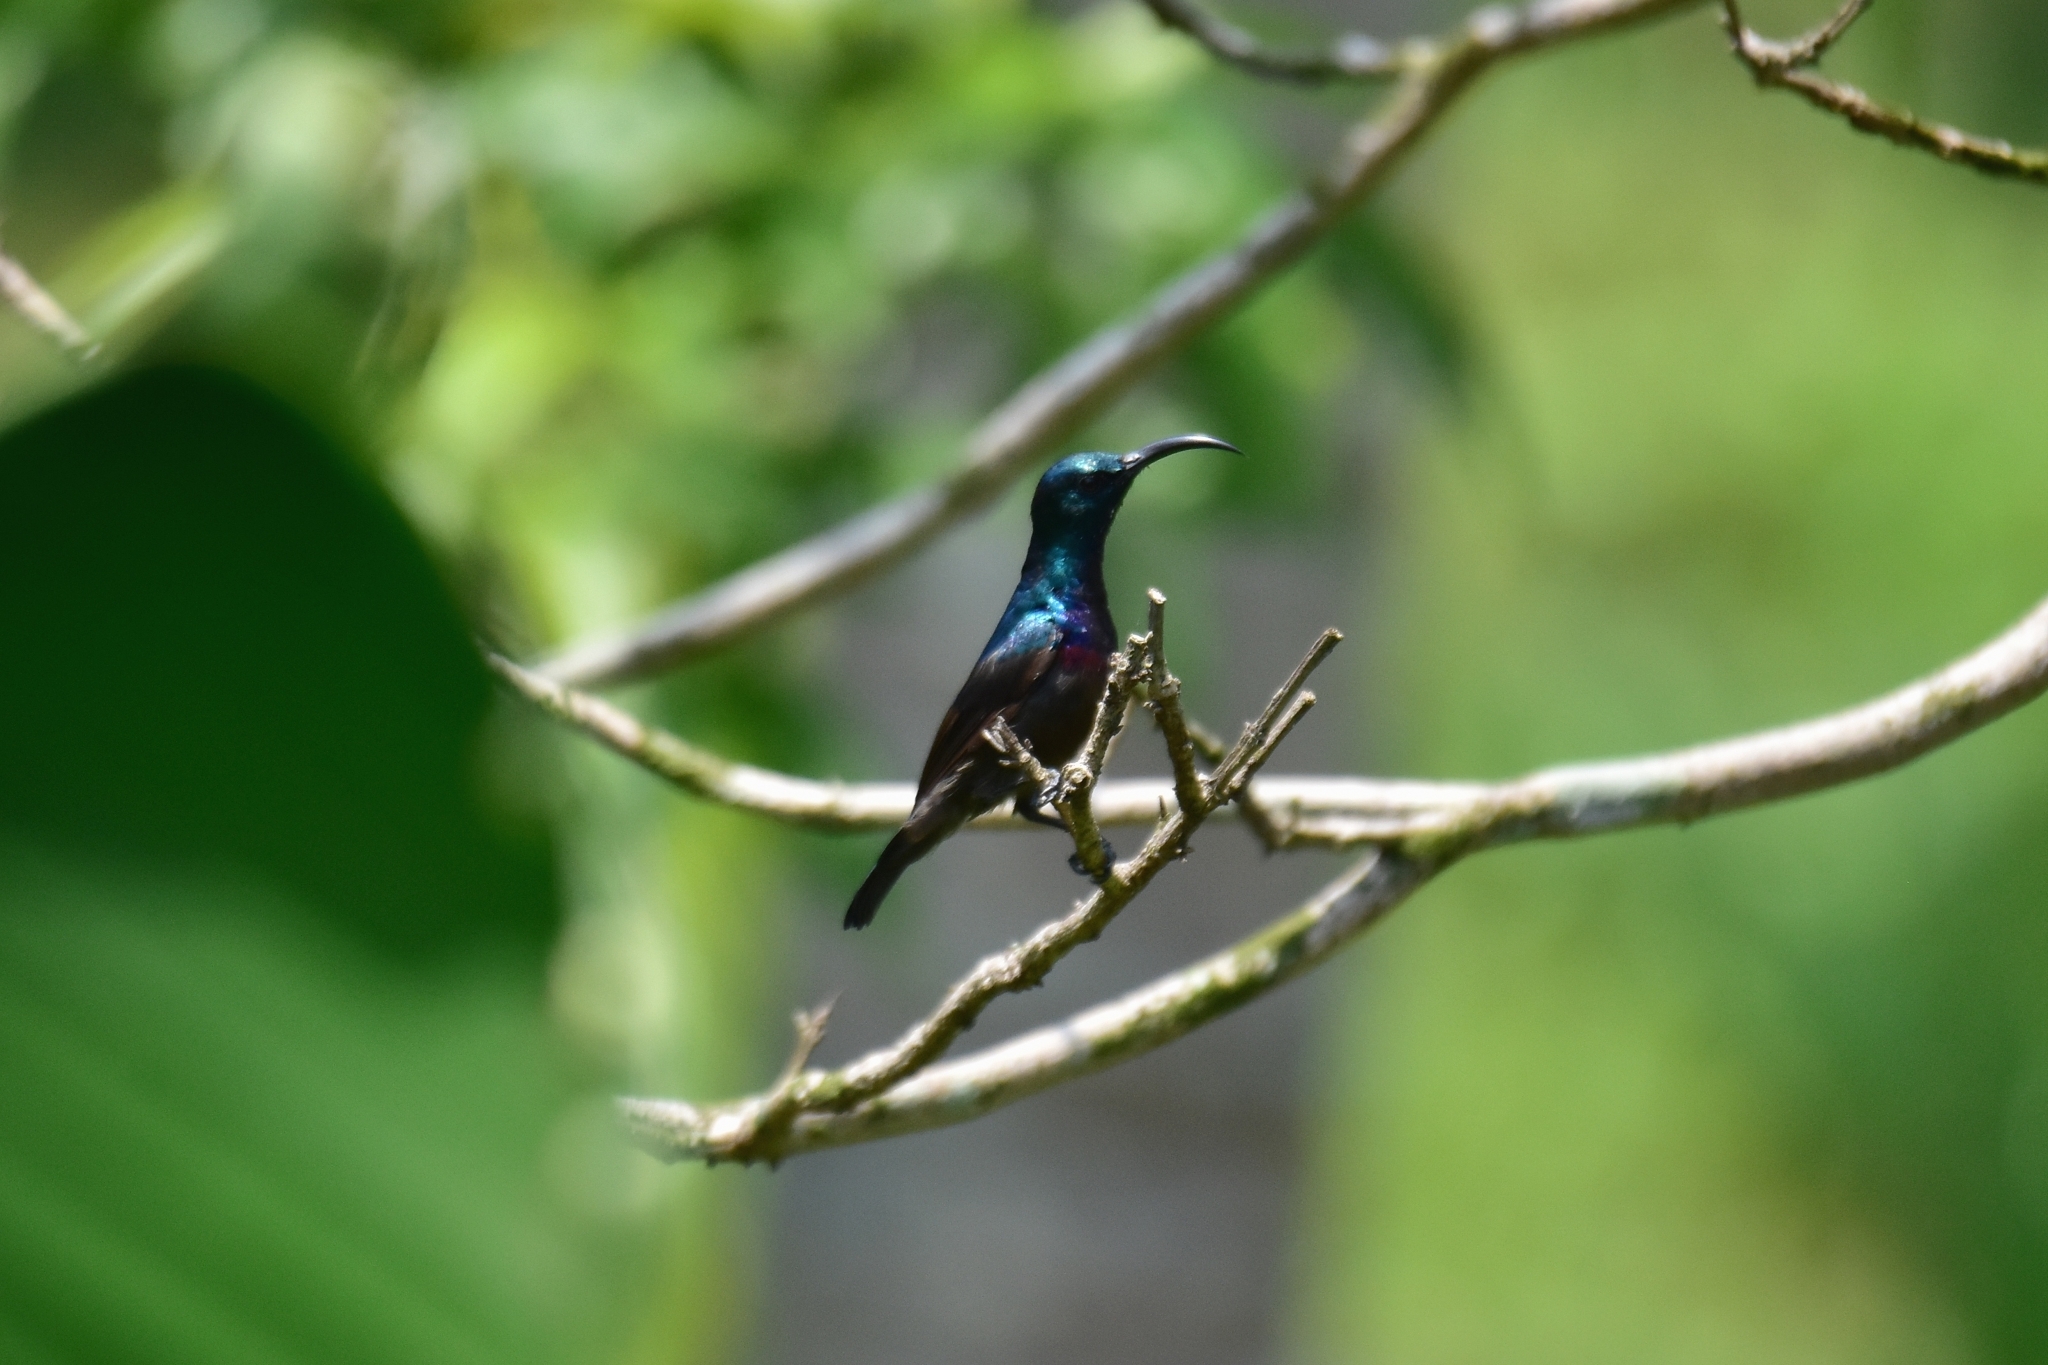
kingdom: Animalia
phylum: Chordata
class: Aves
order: Passeriformes
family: Nectariniidae
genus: Cinnyris
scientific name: Cinnyris lotenius
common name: Loten's sunbird
